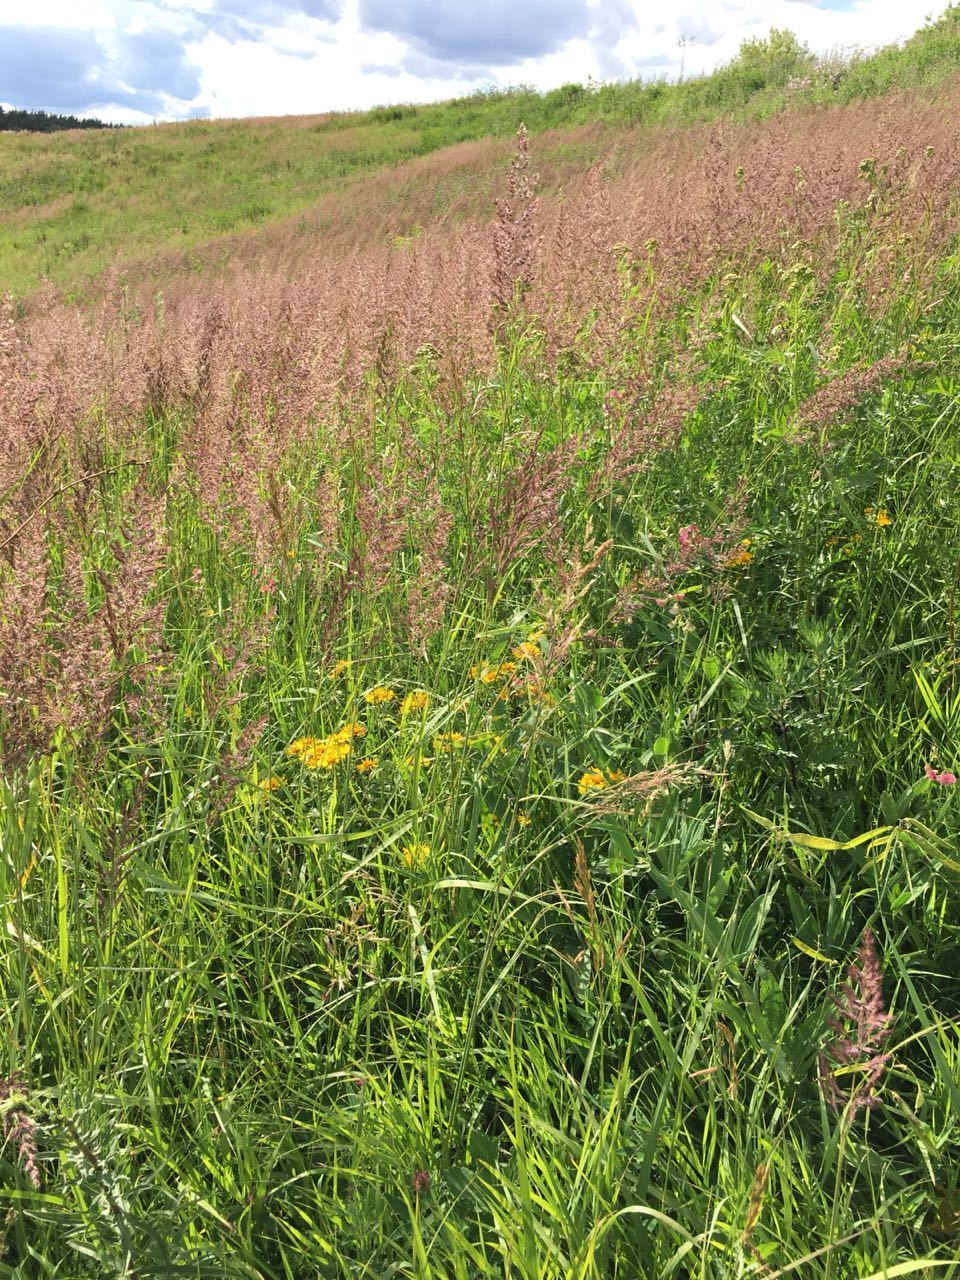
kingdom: Plantae
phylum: Tracheophyta
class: Liliopsida
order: Poales
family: Poaceae
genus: Calamagrostis
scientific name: Calamagrostis epigejos
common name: Wood small-reed
